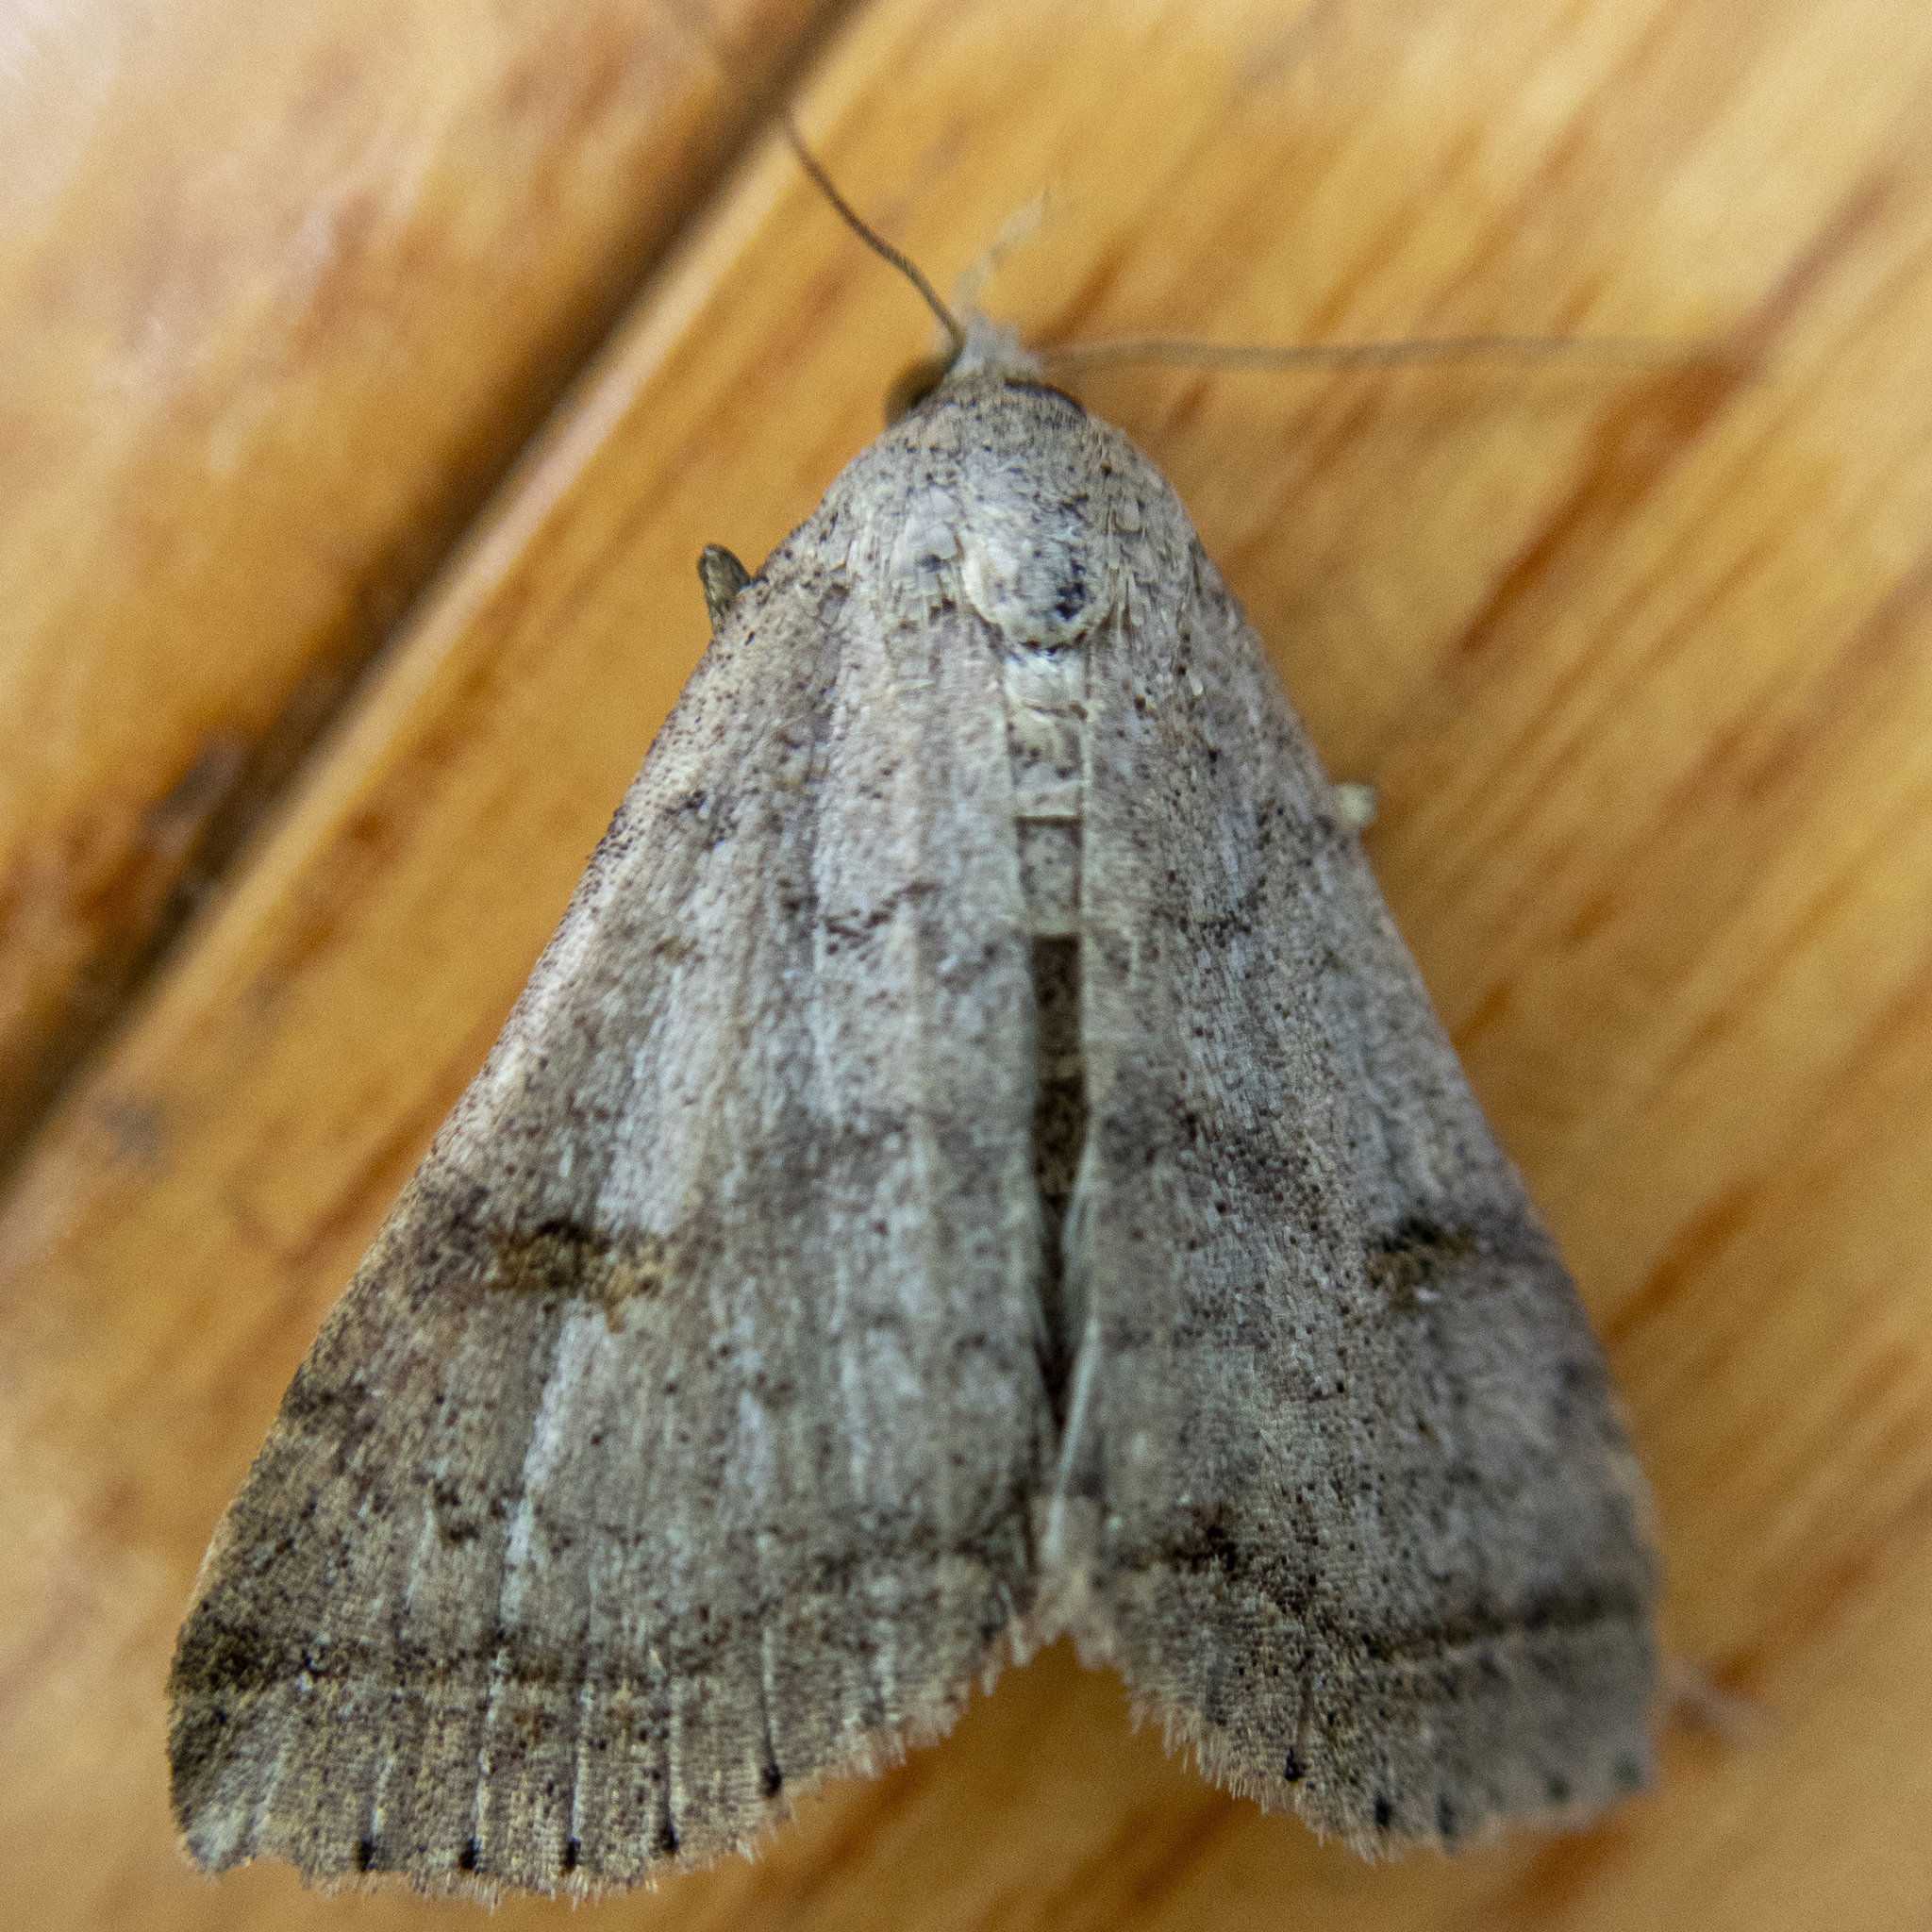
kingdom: Animalia
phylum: Arthropoda
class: Insecta
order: Lepidoptera
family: Erebidae
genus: Bleptina
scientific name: Bleptina caradrinalis
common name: Bent-winged owlet
